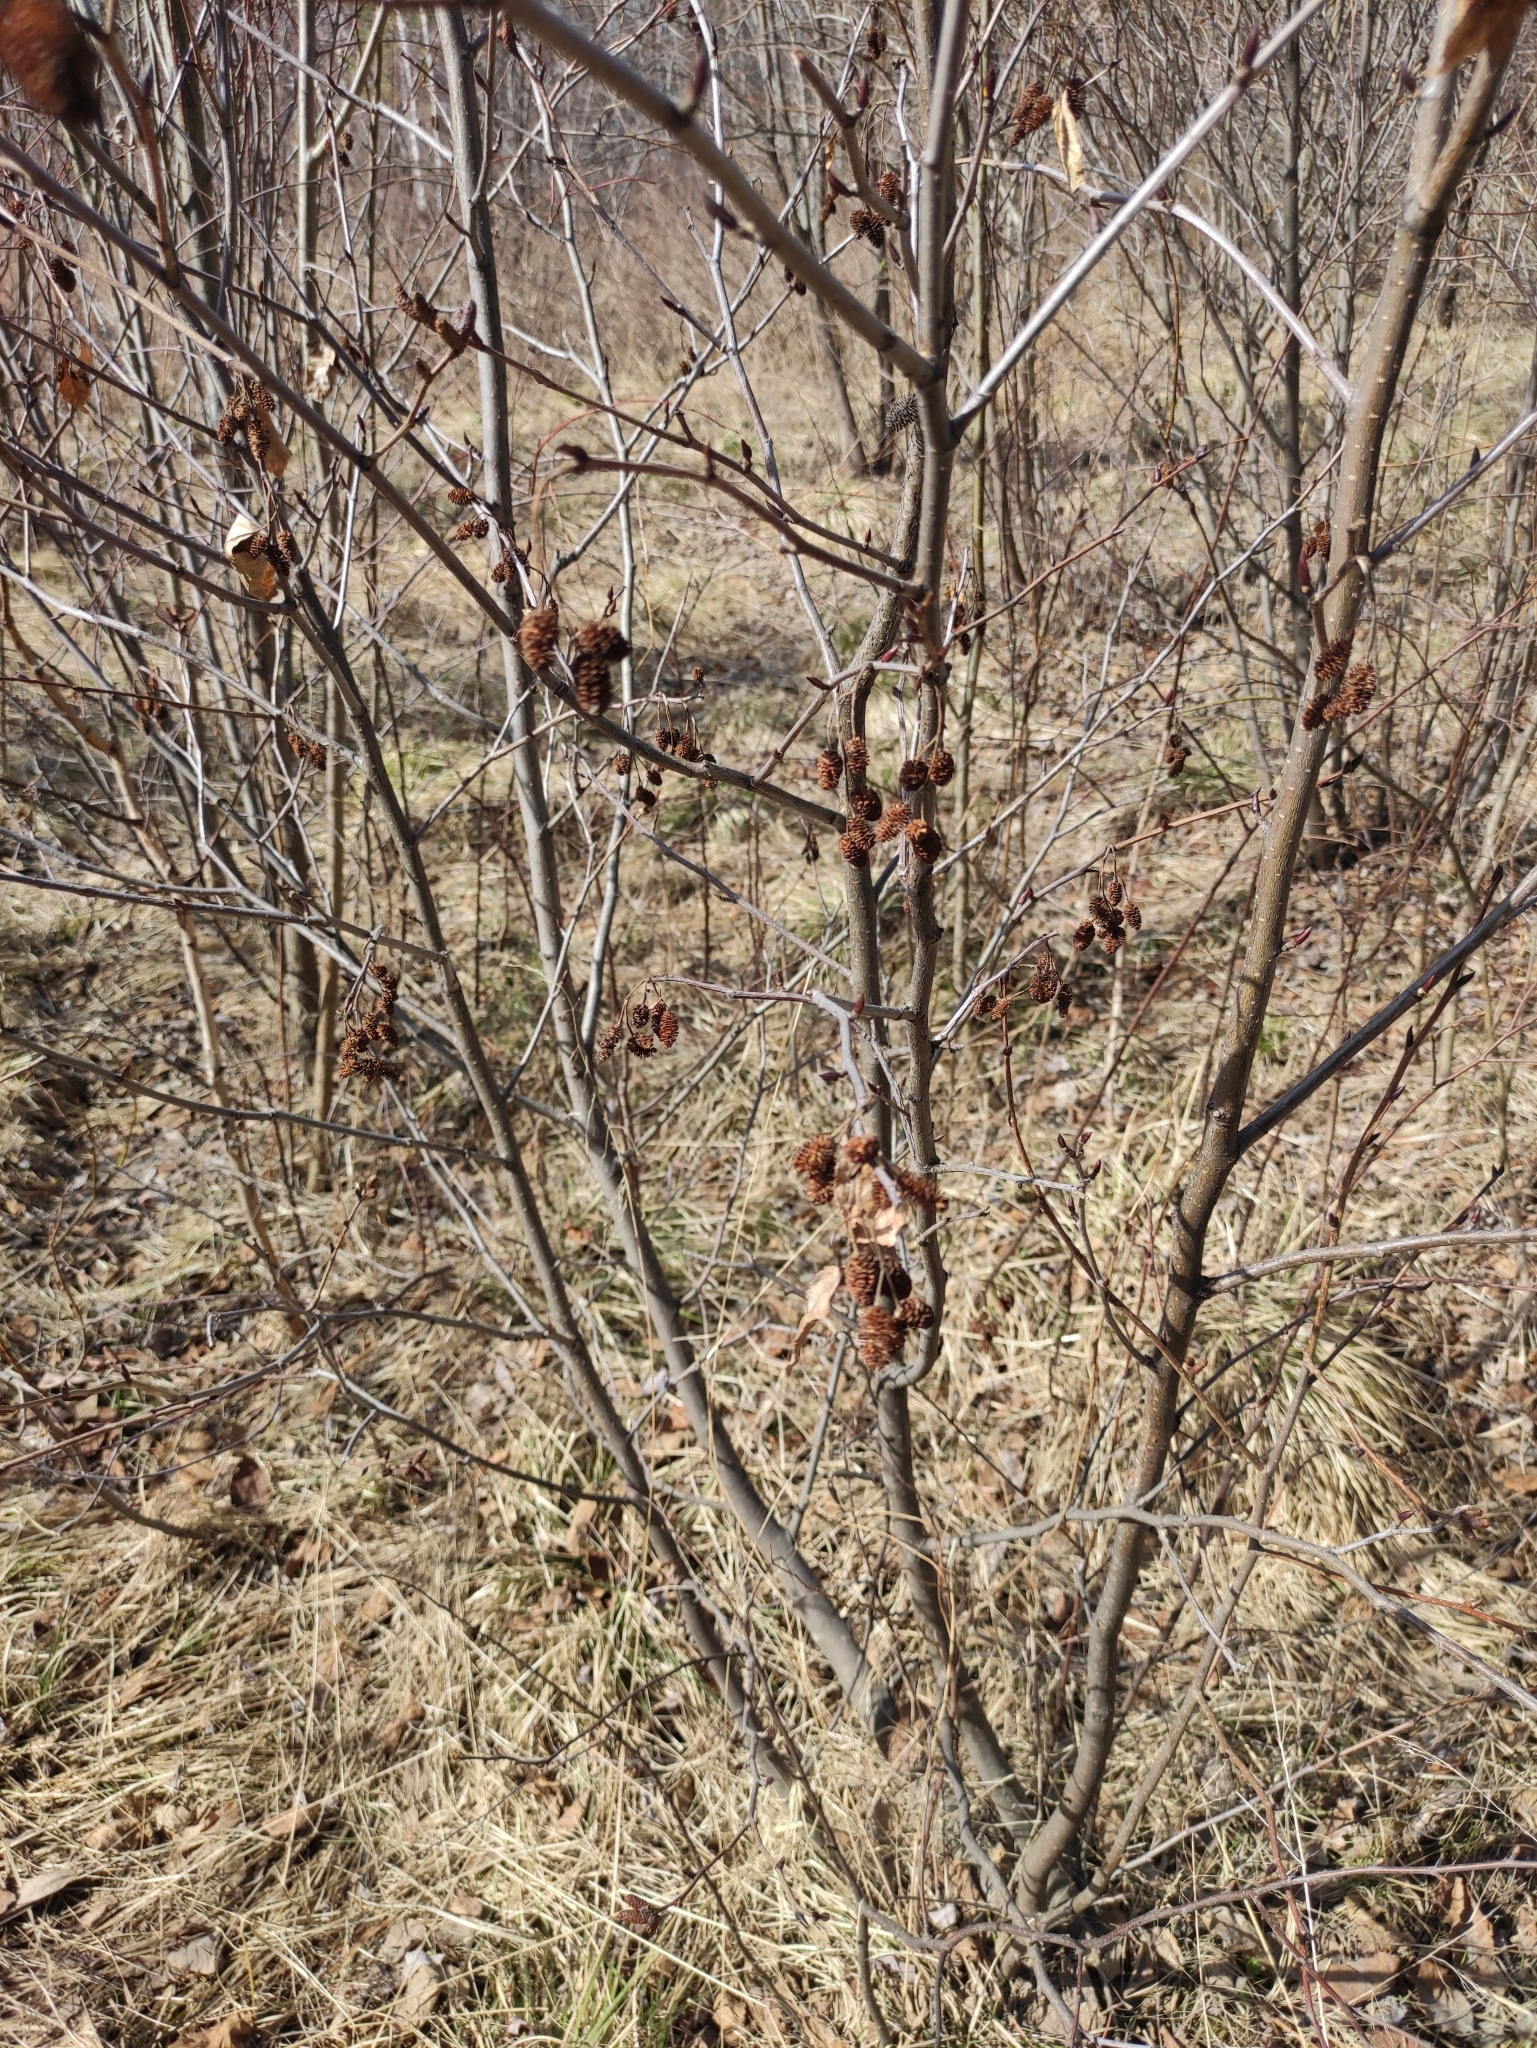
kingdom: Plantae
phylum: Tracheophyta
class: Magnoliopsida
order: Fagales
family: Betulaceae
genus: Alnus
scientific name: Alnus alnobetula
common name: Green alder
